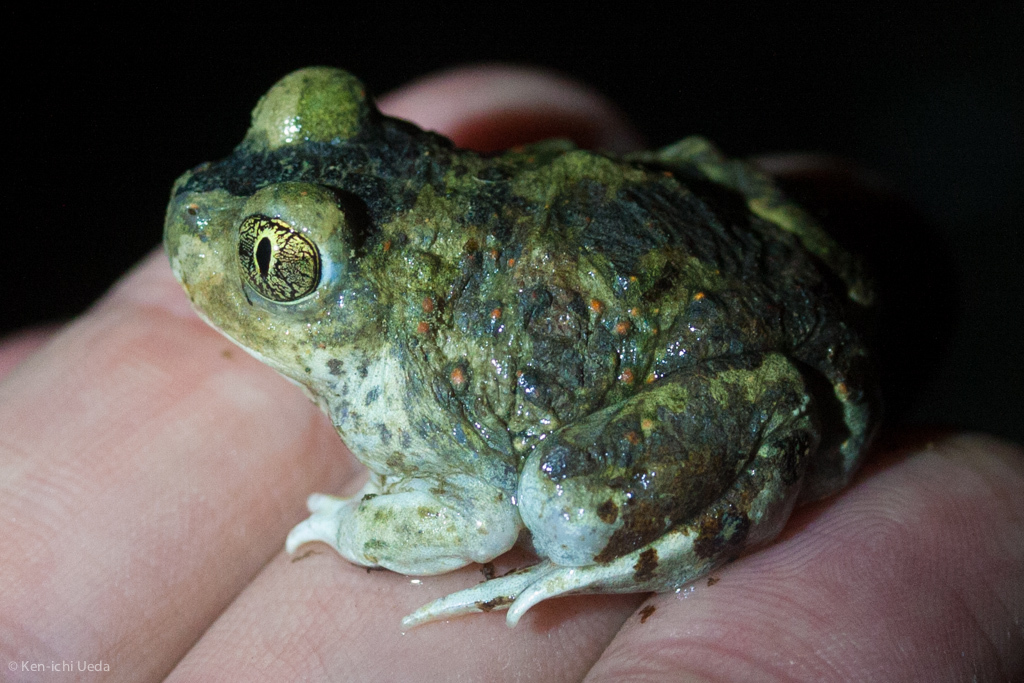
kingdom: Animalia
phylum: Chordata
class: Amphibia
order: Anura
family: Scaphiopodidae
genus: Spea
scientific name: Spea hammondii
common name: Western spadefoot toad
